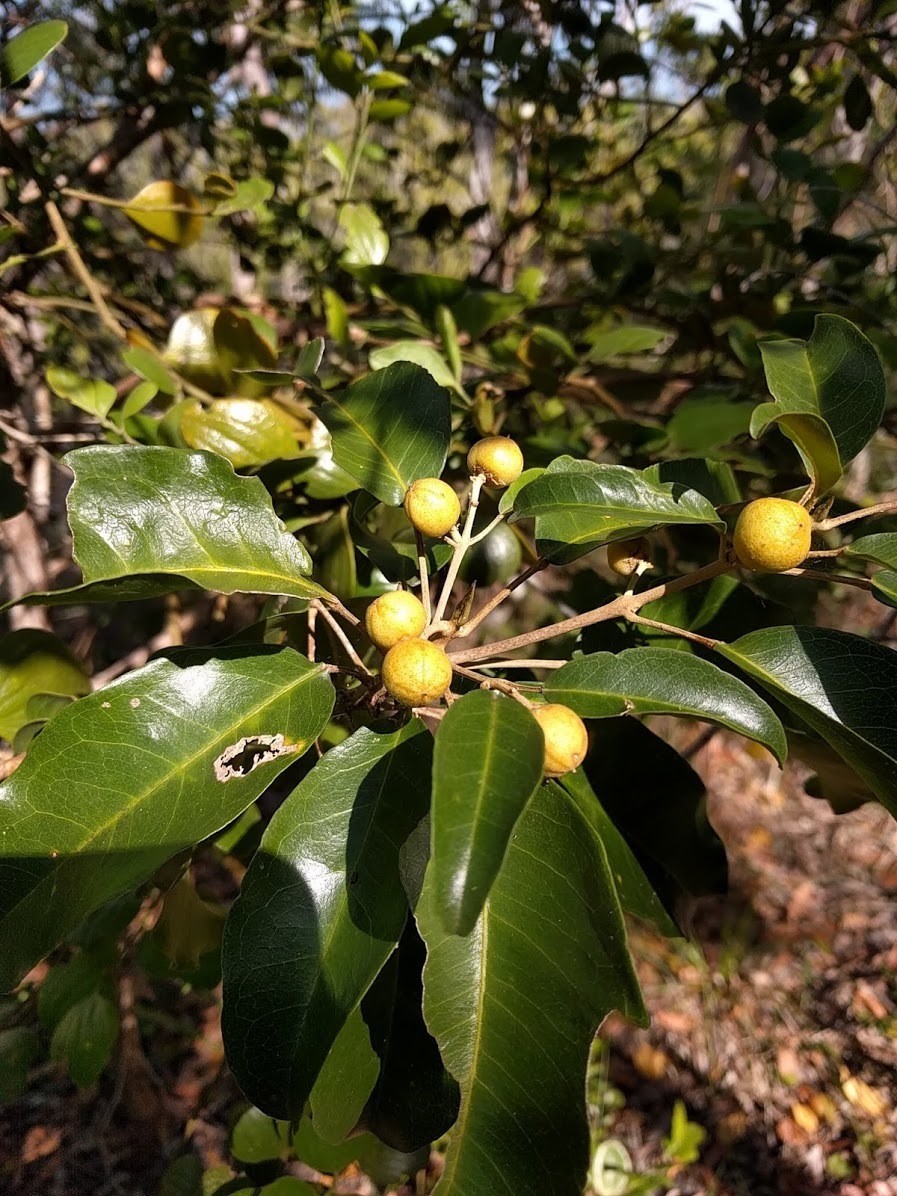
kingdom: Plantae
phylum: Tracheophyta
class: Magnoliopsida
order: Sapindales
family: Rutaceae
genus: Sarcomelicope
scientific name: Sarcomelicope simplicifolia
